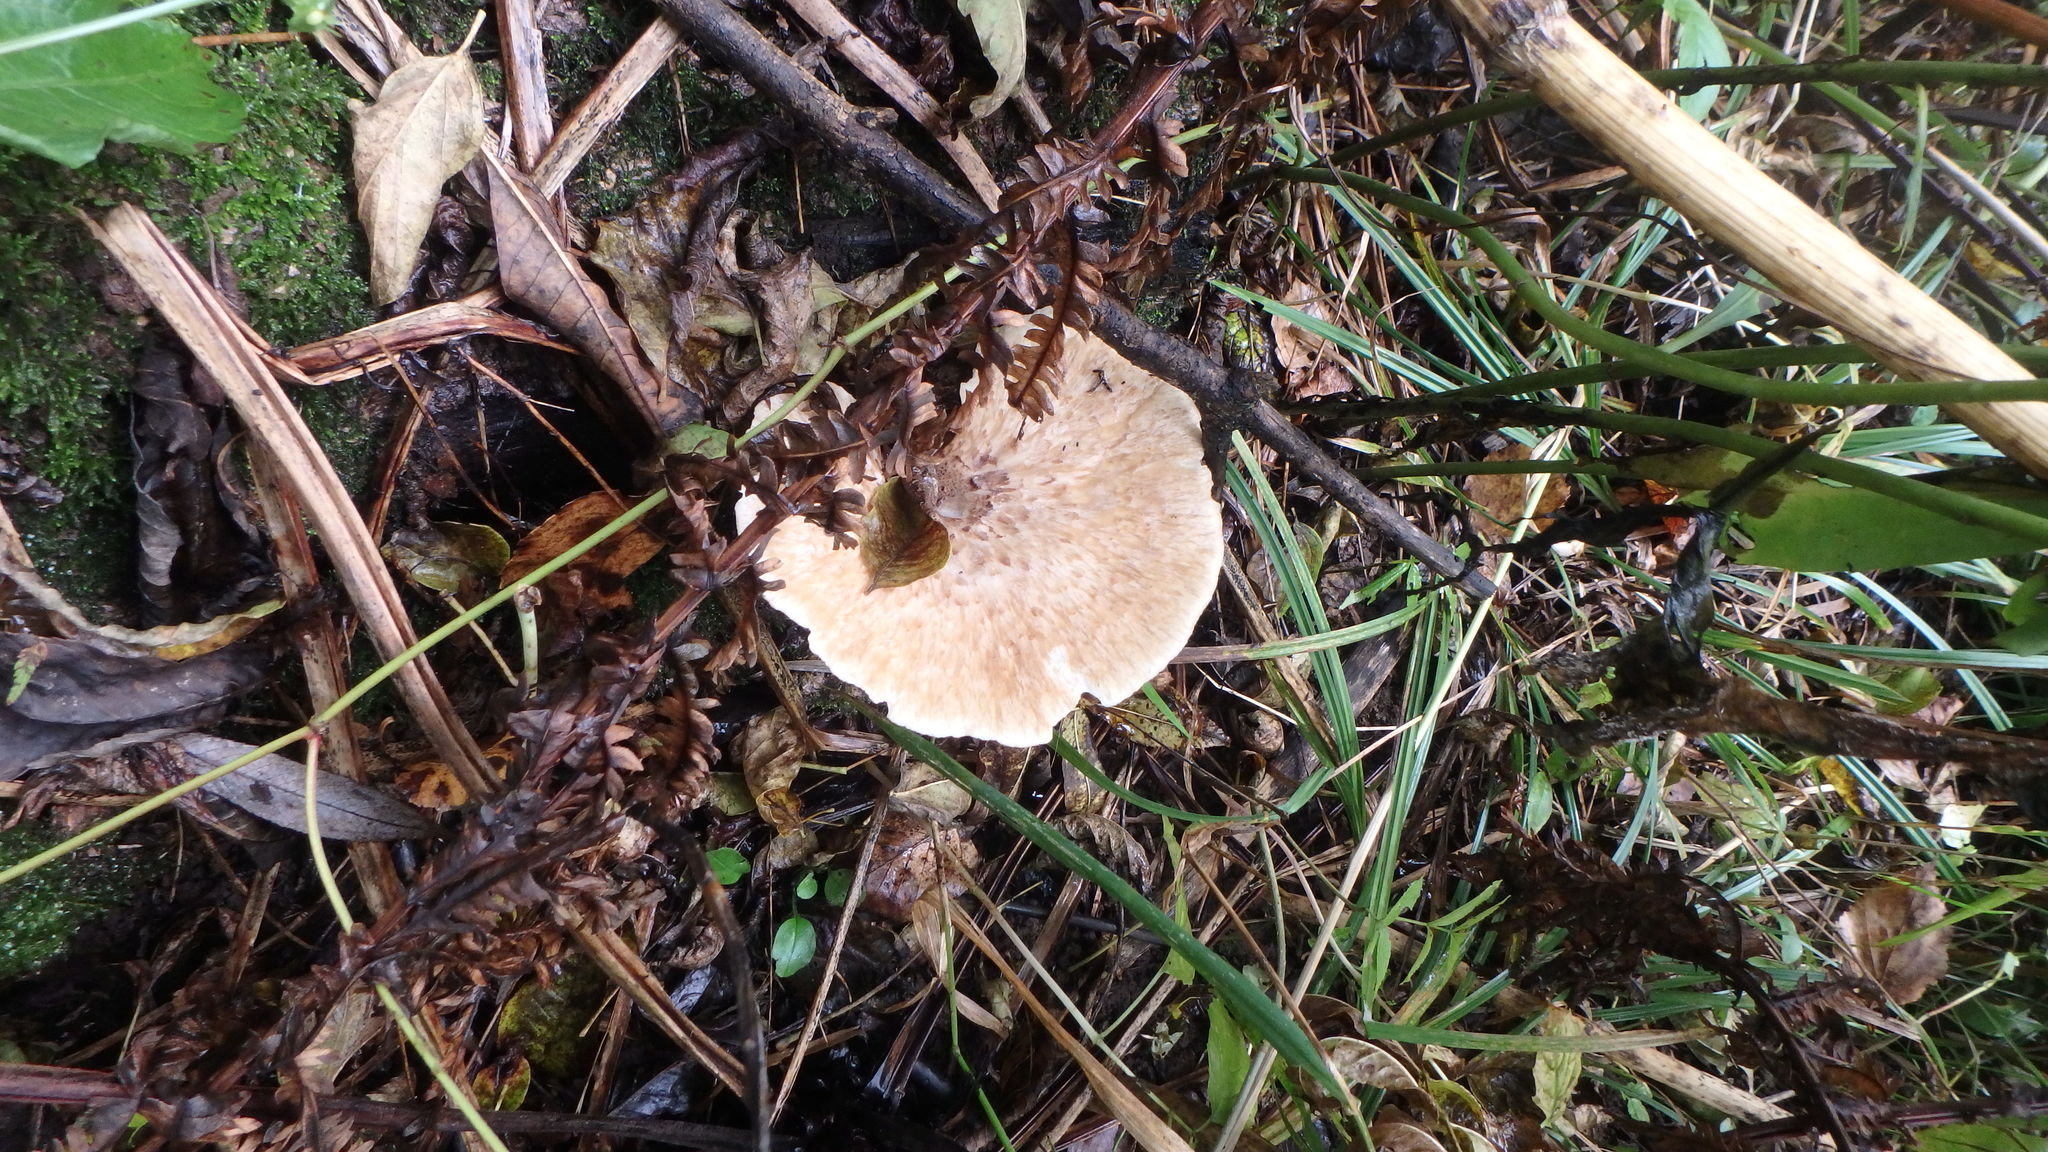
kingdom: Fungi
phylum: Basidiomycota
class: Agaricomycetes
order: Polyporales
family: Polyporaceae
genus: Cerioporus
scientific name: Cerioporus squamosus
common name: Dryad's saddle
